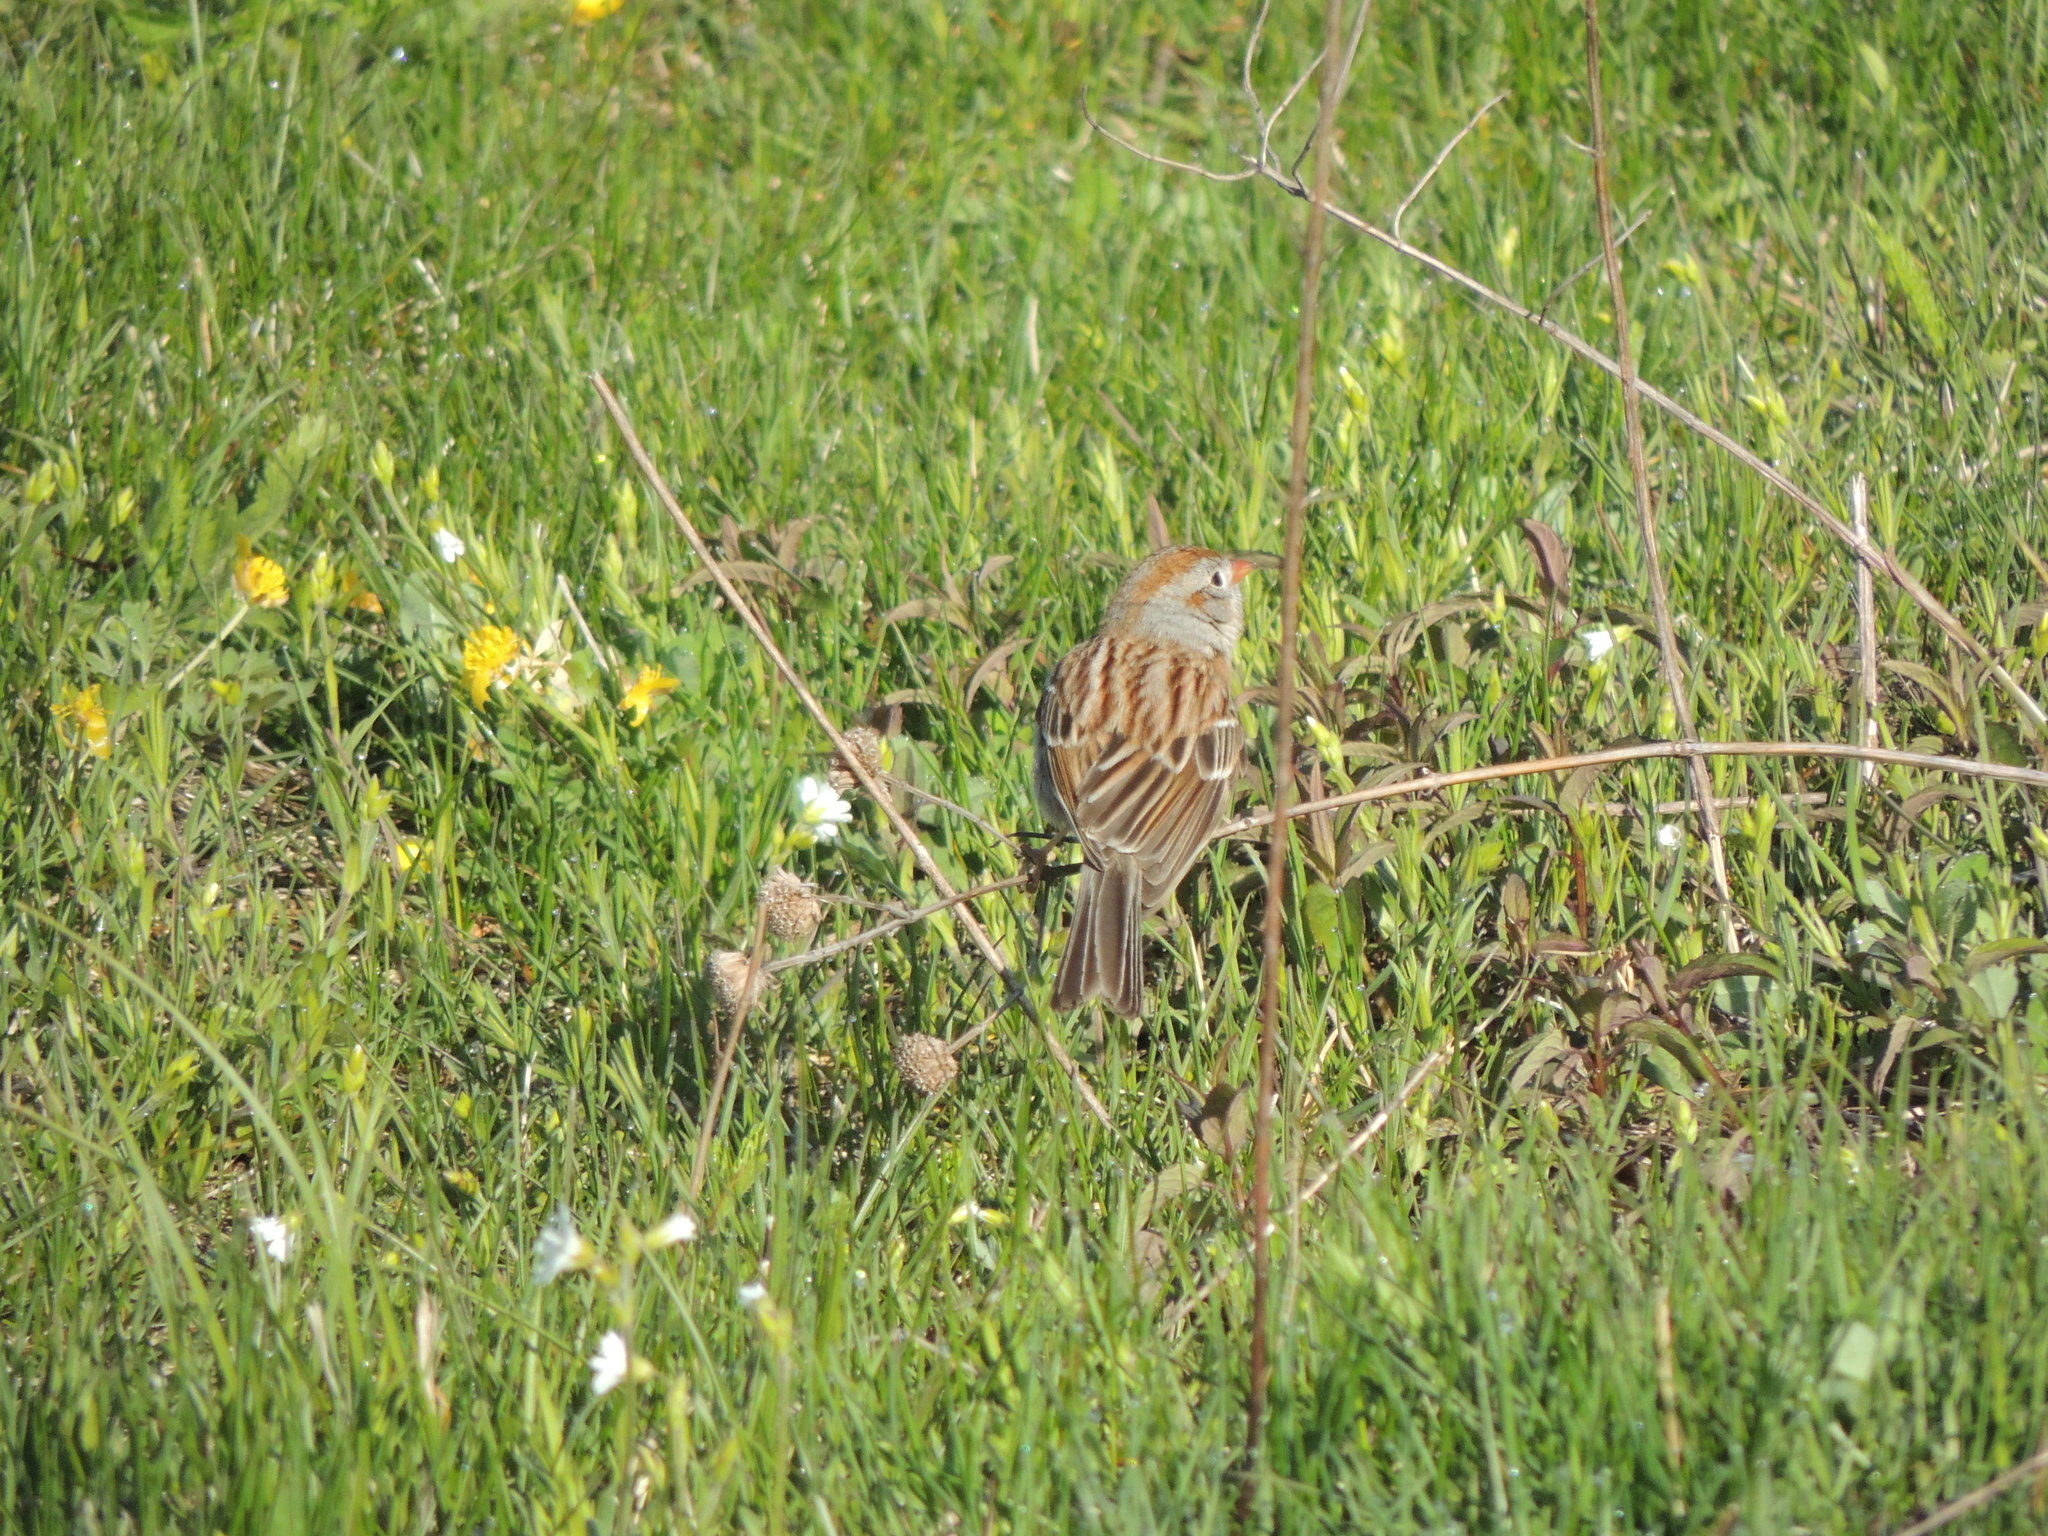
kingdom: Animalia
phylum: Chordata
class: Aves
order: Passeriformes
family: Passerellidae
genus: Spizella
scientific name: Spizella pusilla
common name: Field sparrow
